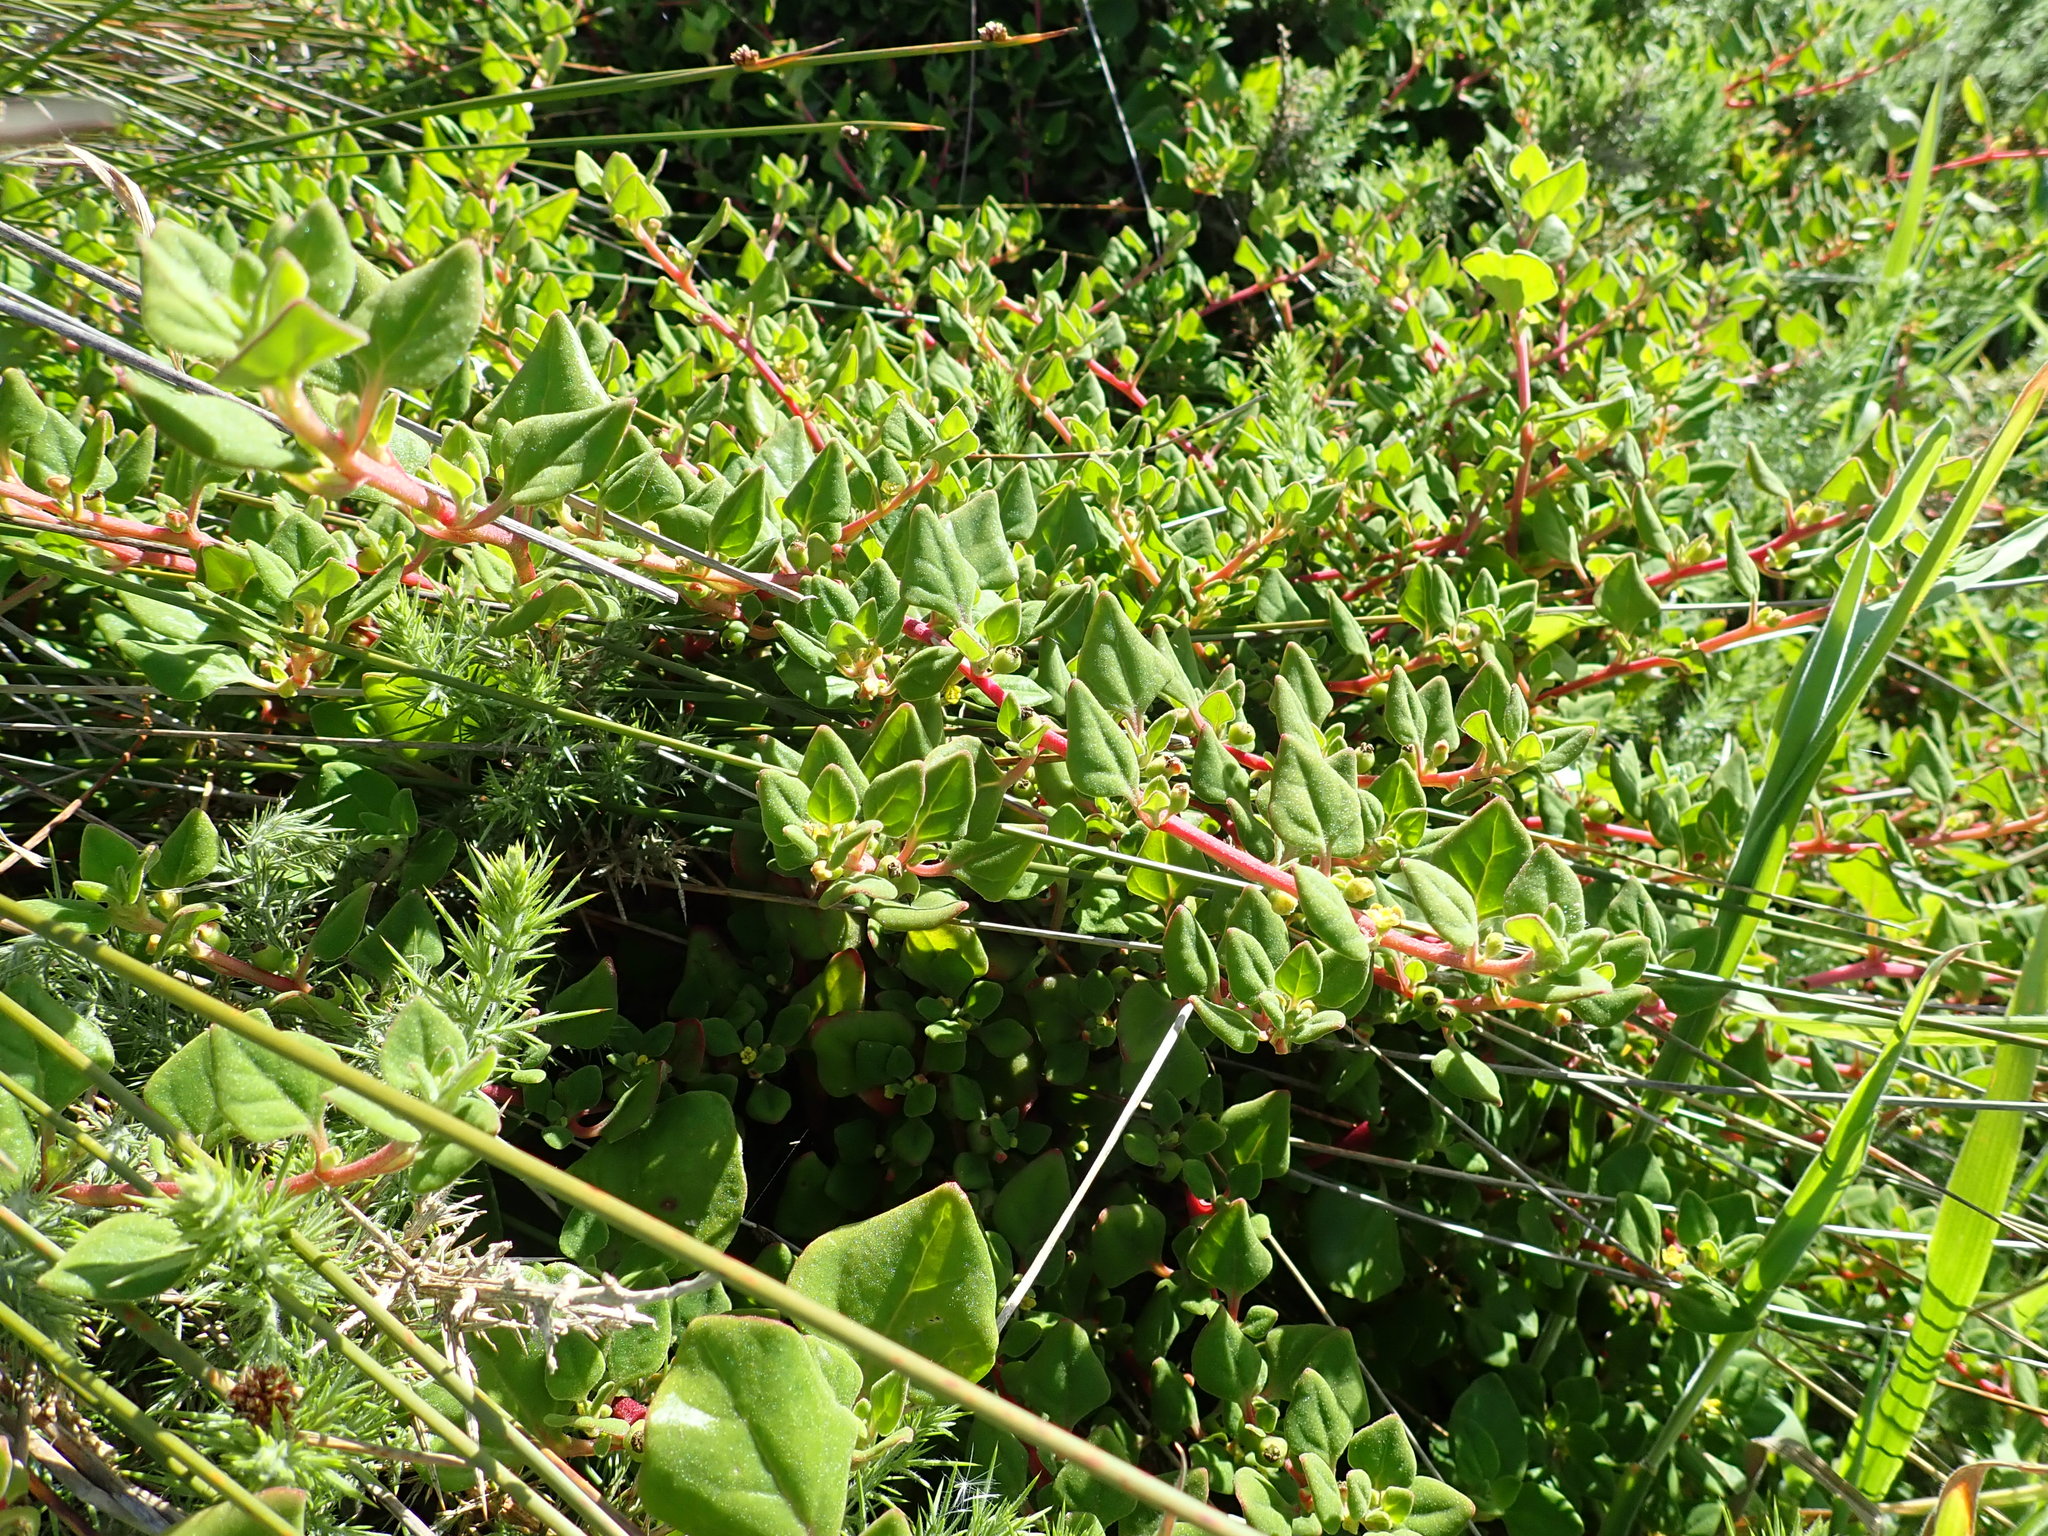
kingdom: Plantae
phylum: Tracheophyta
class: Magnoliopsida
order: Caryophyllales
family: Aizoaceae
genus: Tetragonia
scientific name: Tetragonia implexicoma
